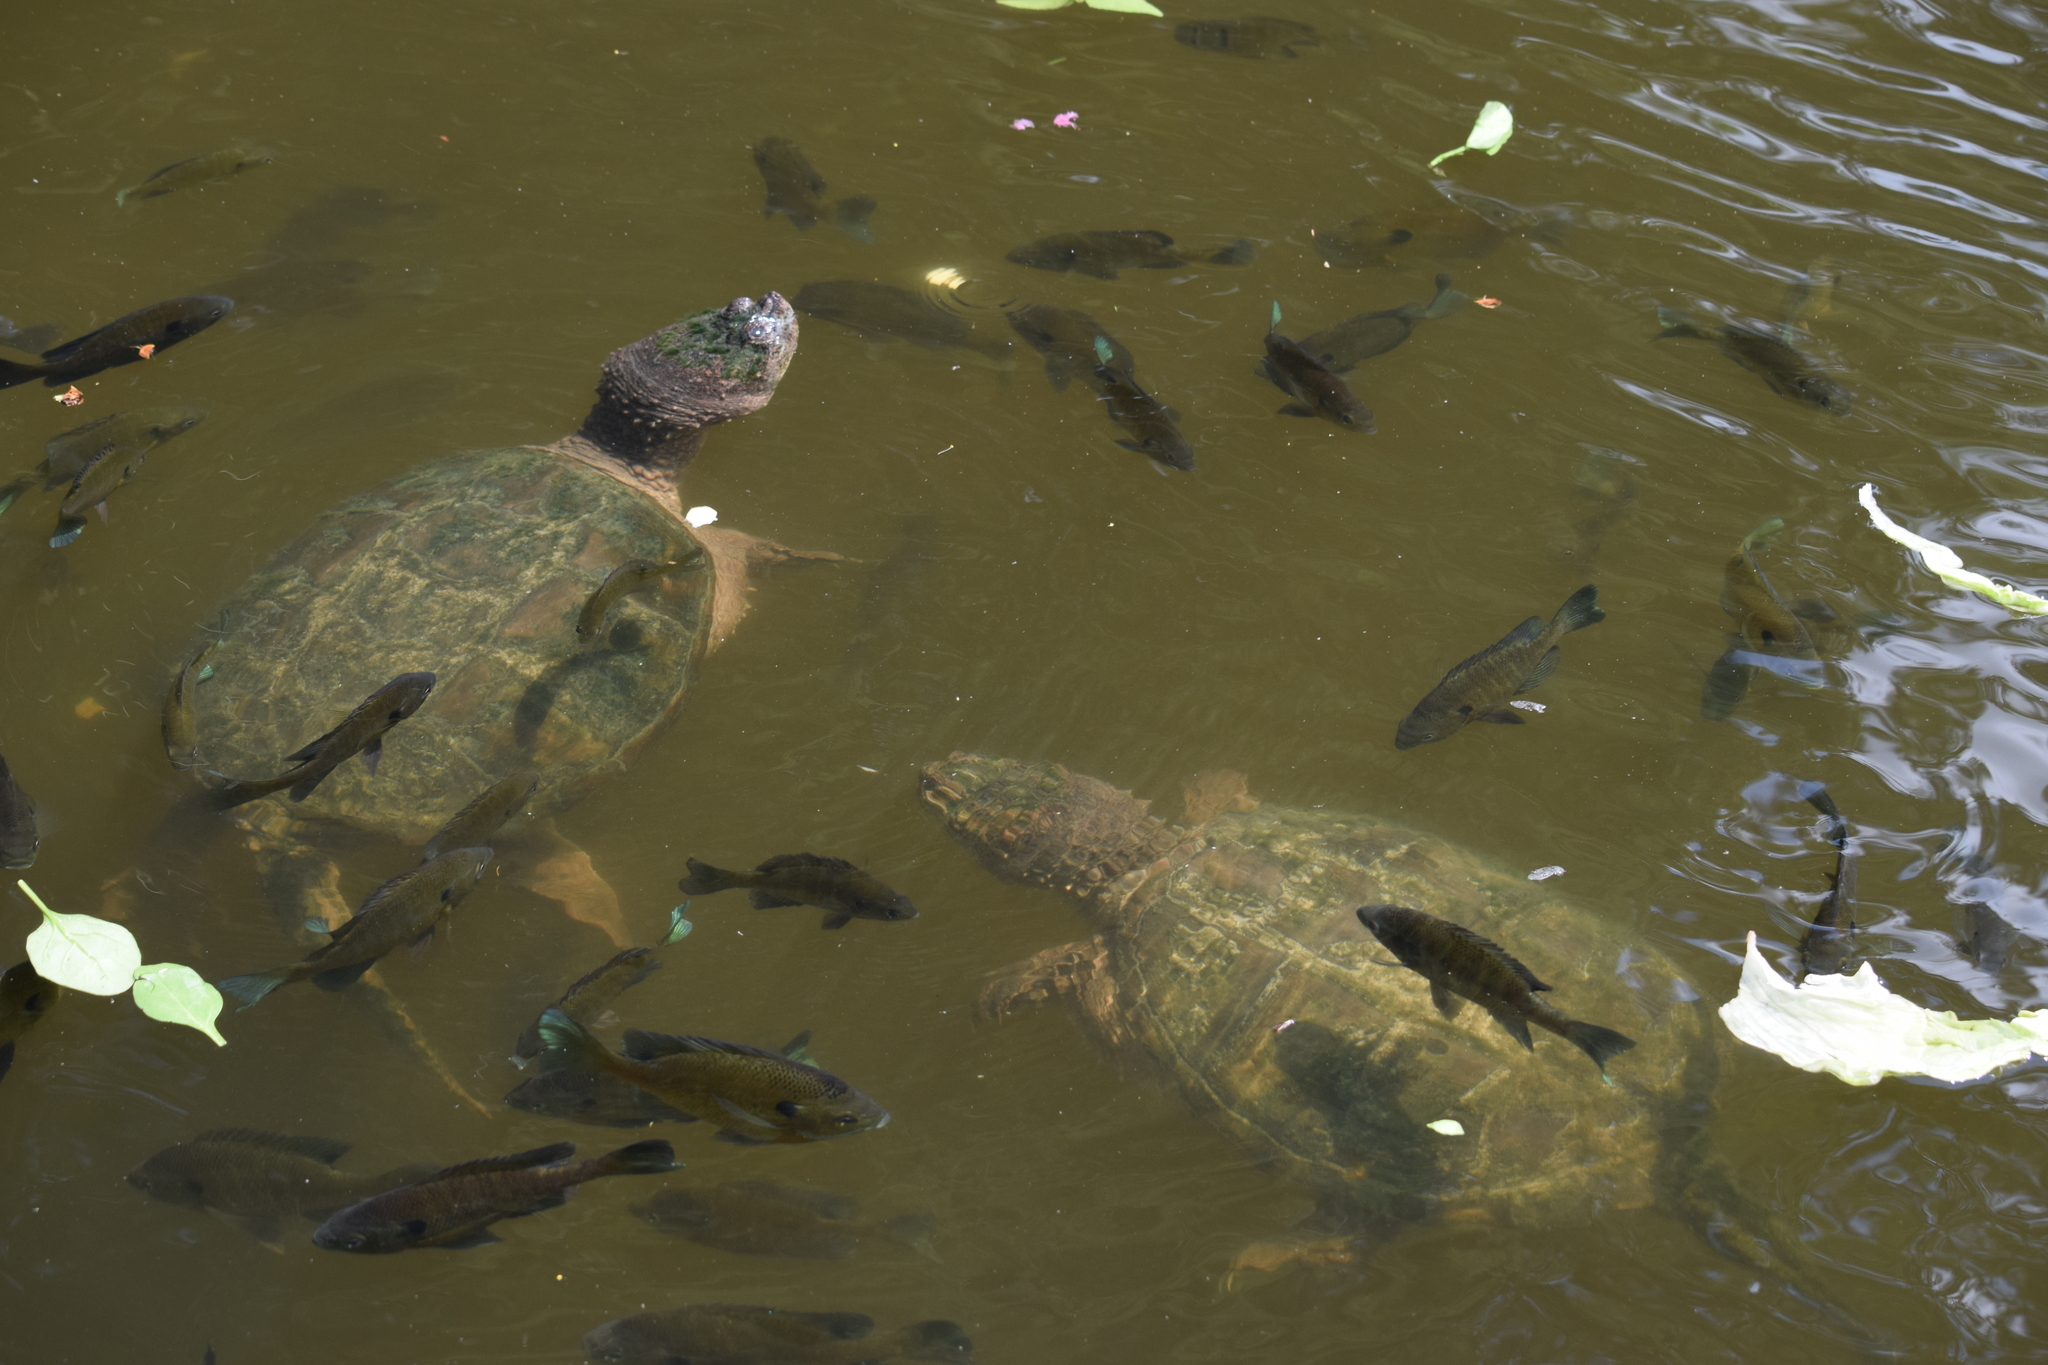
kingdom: Animalia
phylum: Chordata
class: Testudines
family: Chelydridae
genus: Chelydra
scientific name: Chelydra serpentina
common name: Common snapping turtle
